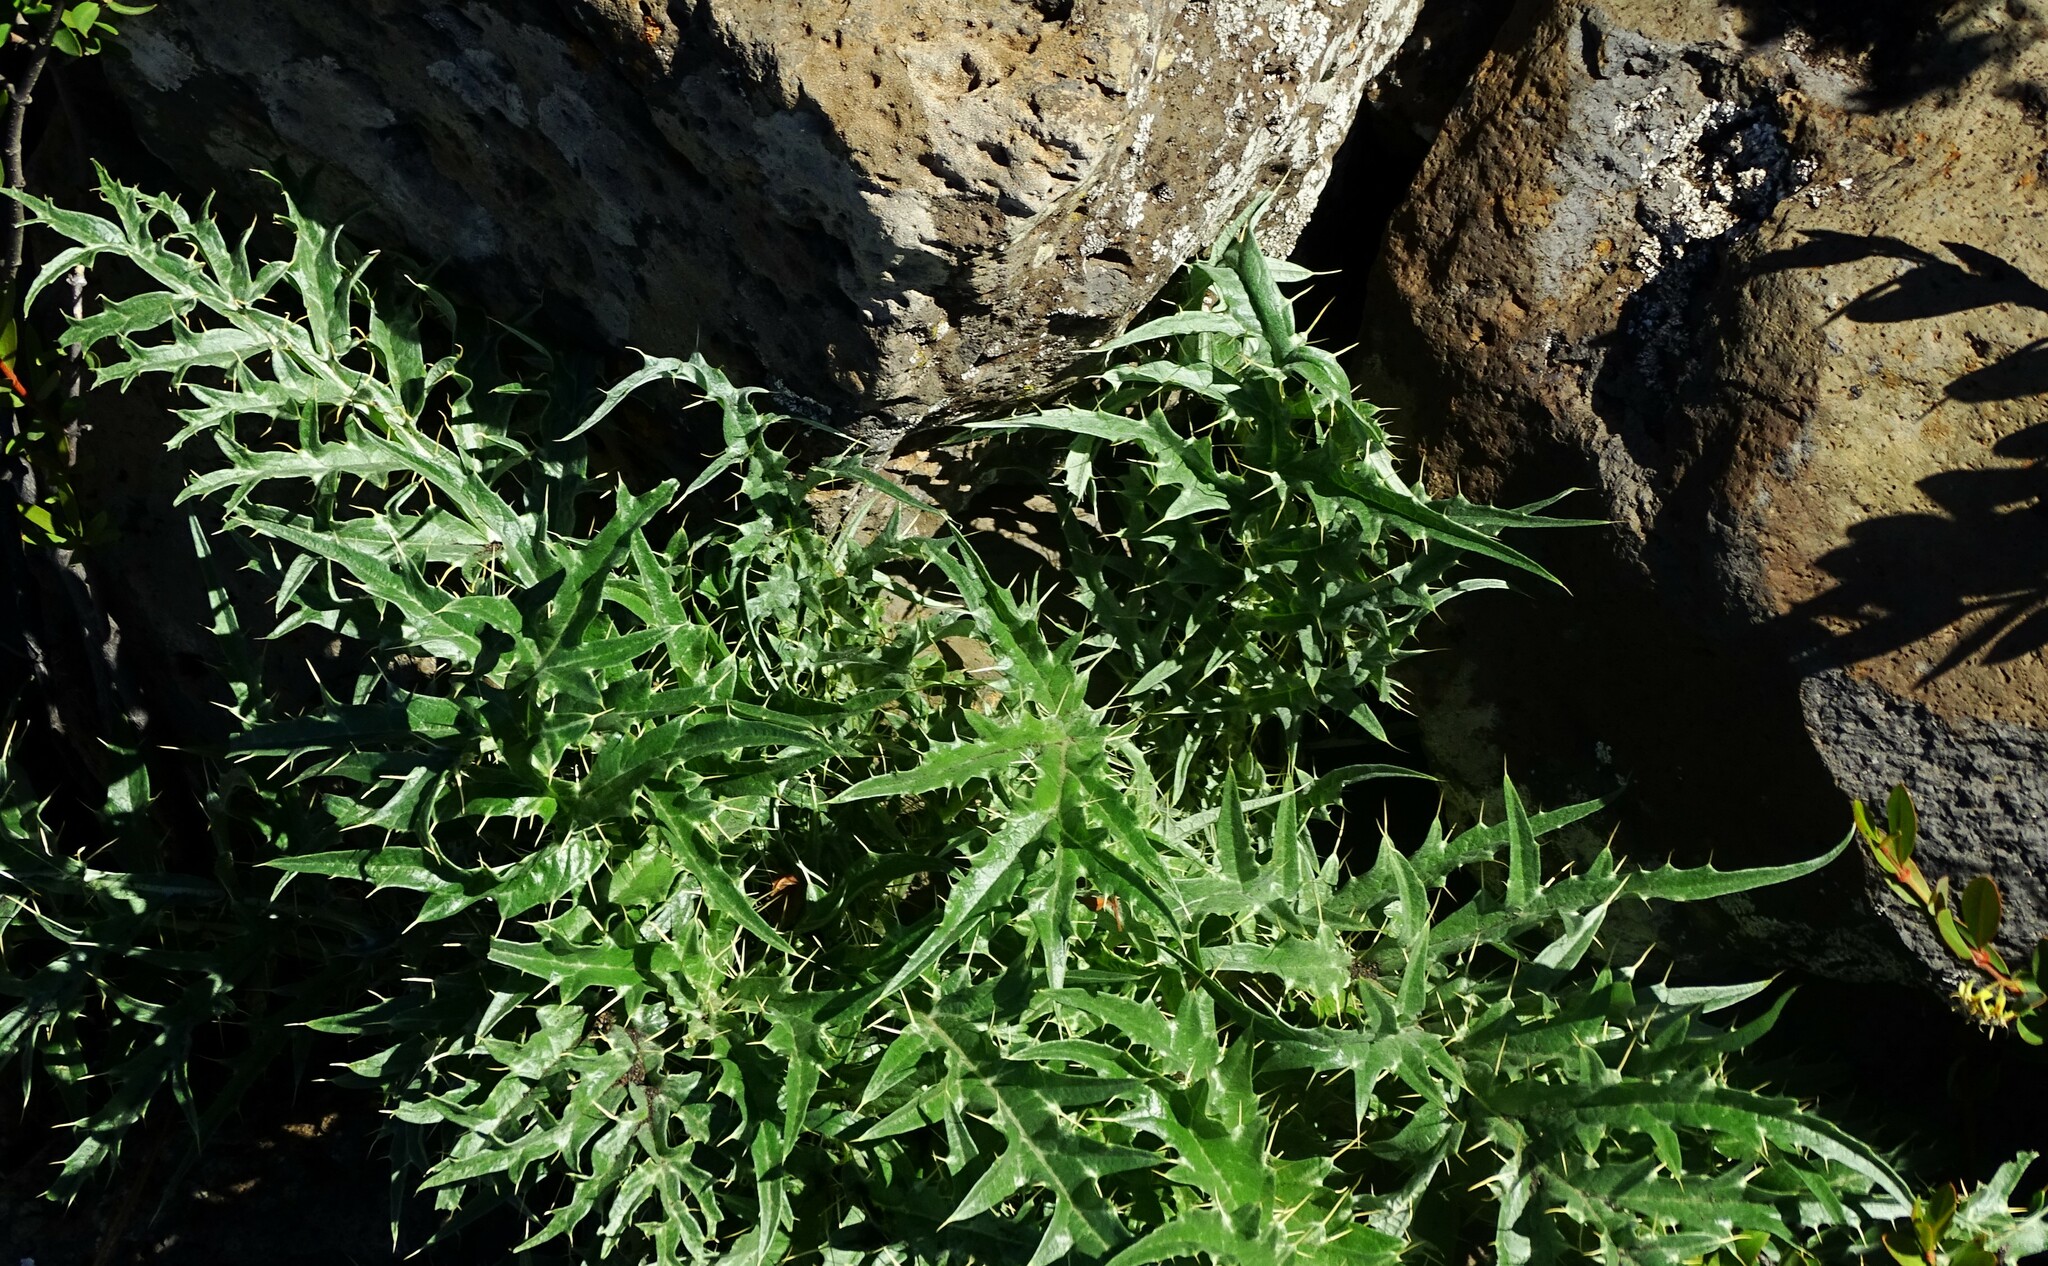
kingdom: Plantae
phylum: Tracheophyta
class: Magnoliopsida
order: Asterales
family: Asteraceae
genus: Cynara
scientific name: Cynara cardunculus
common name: Globe artichoke
